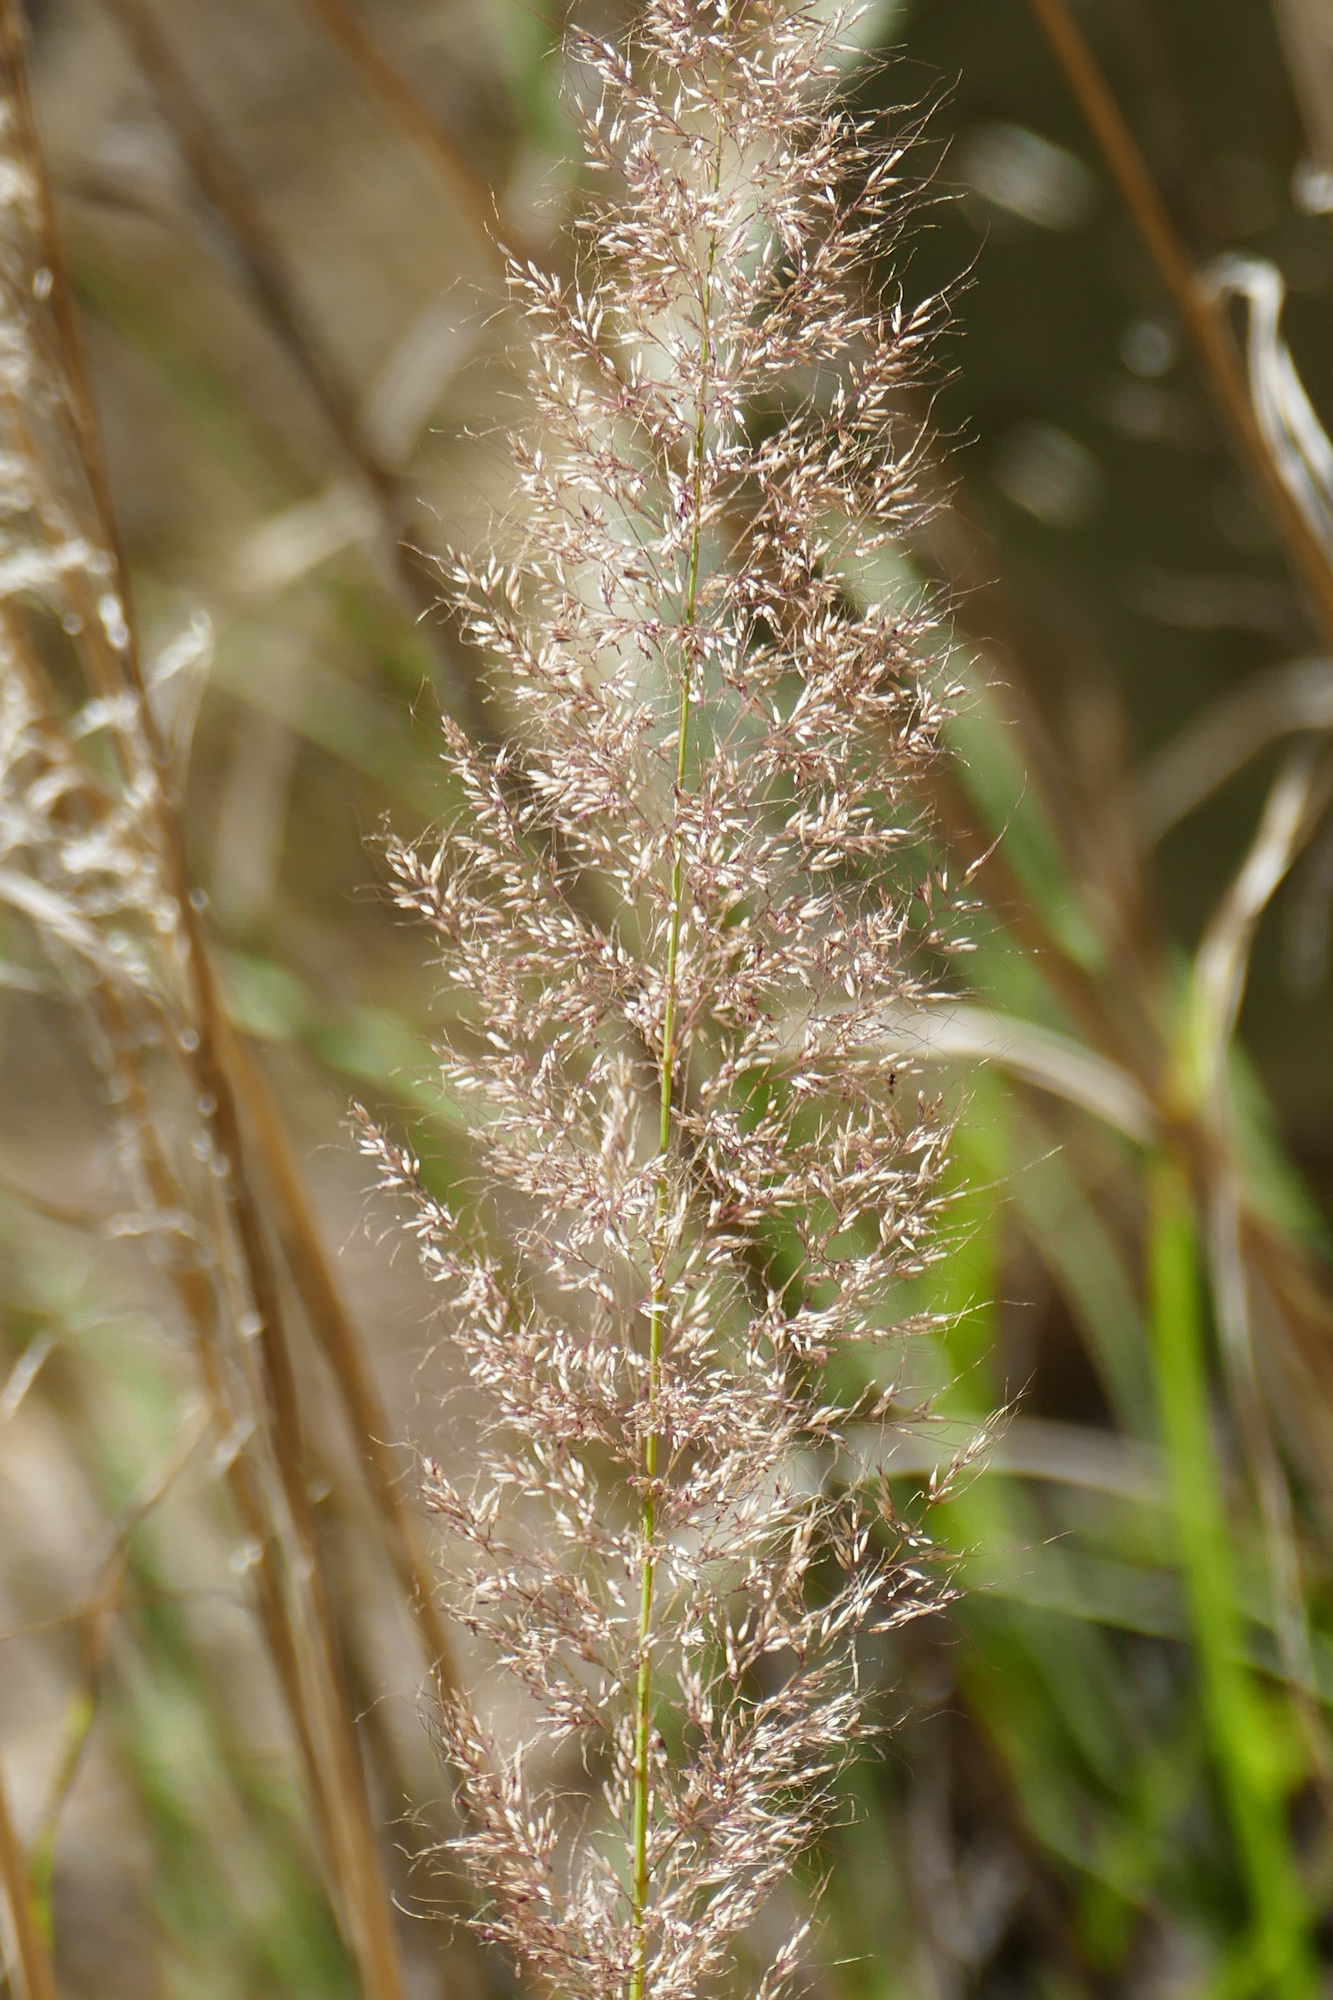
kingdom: Plantae
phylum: Tracheophyta
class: Liliopsida
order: Poales
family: Poaceae
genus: Muhlenbergia
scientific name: Muhlenbergia emersleyi
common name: Bull grass
